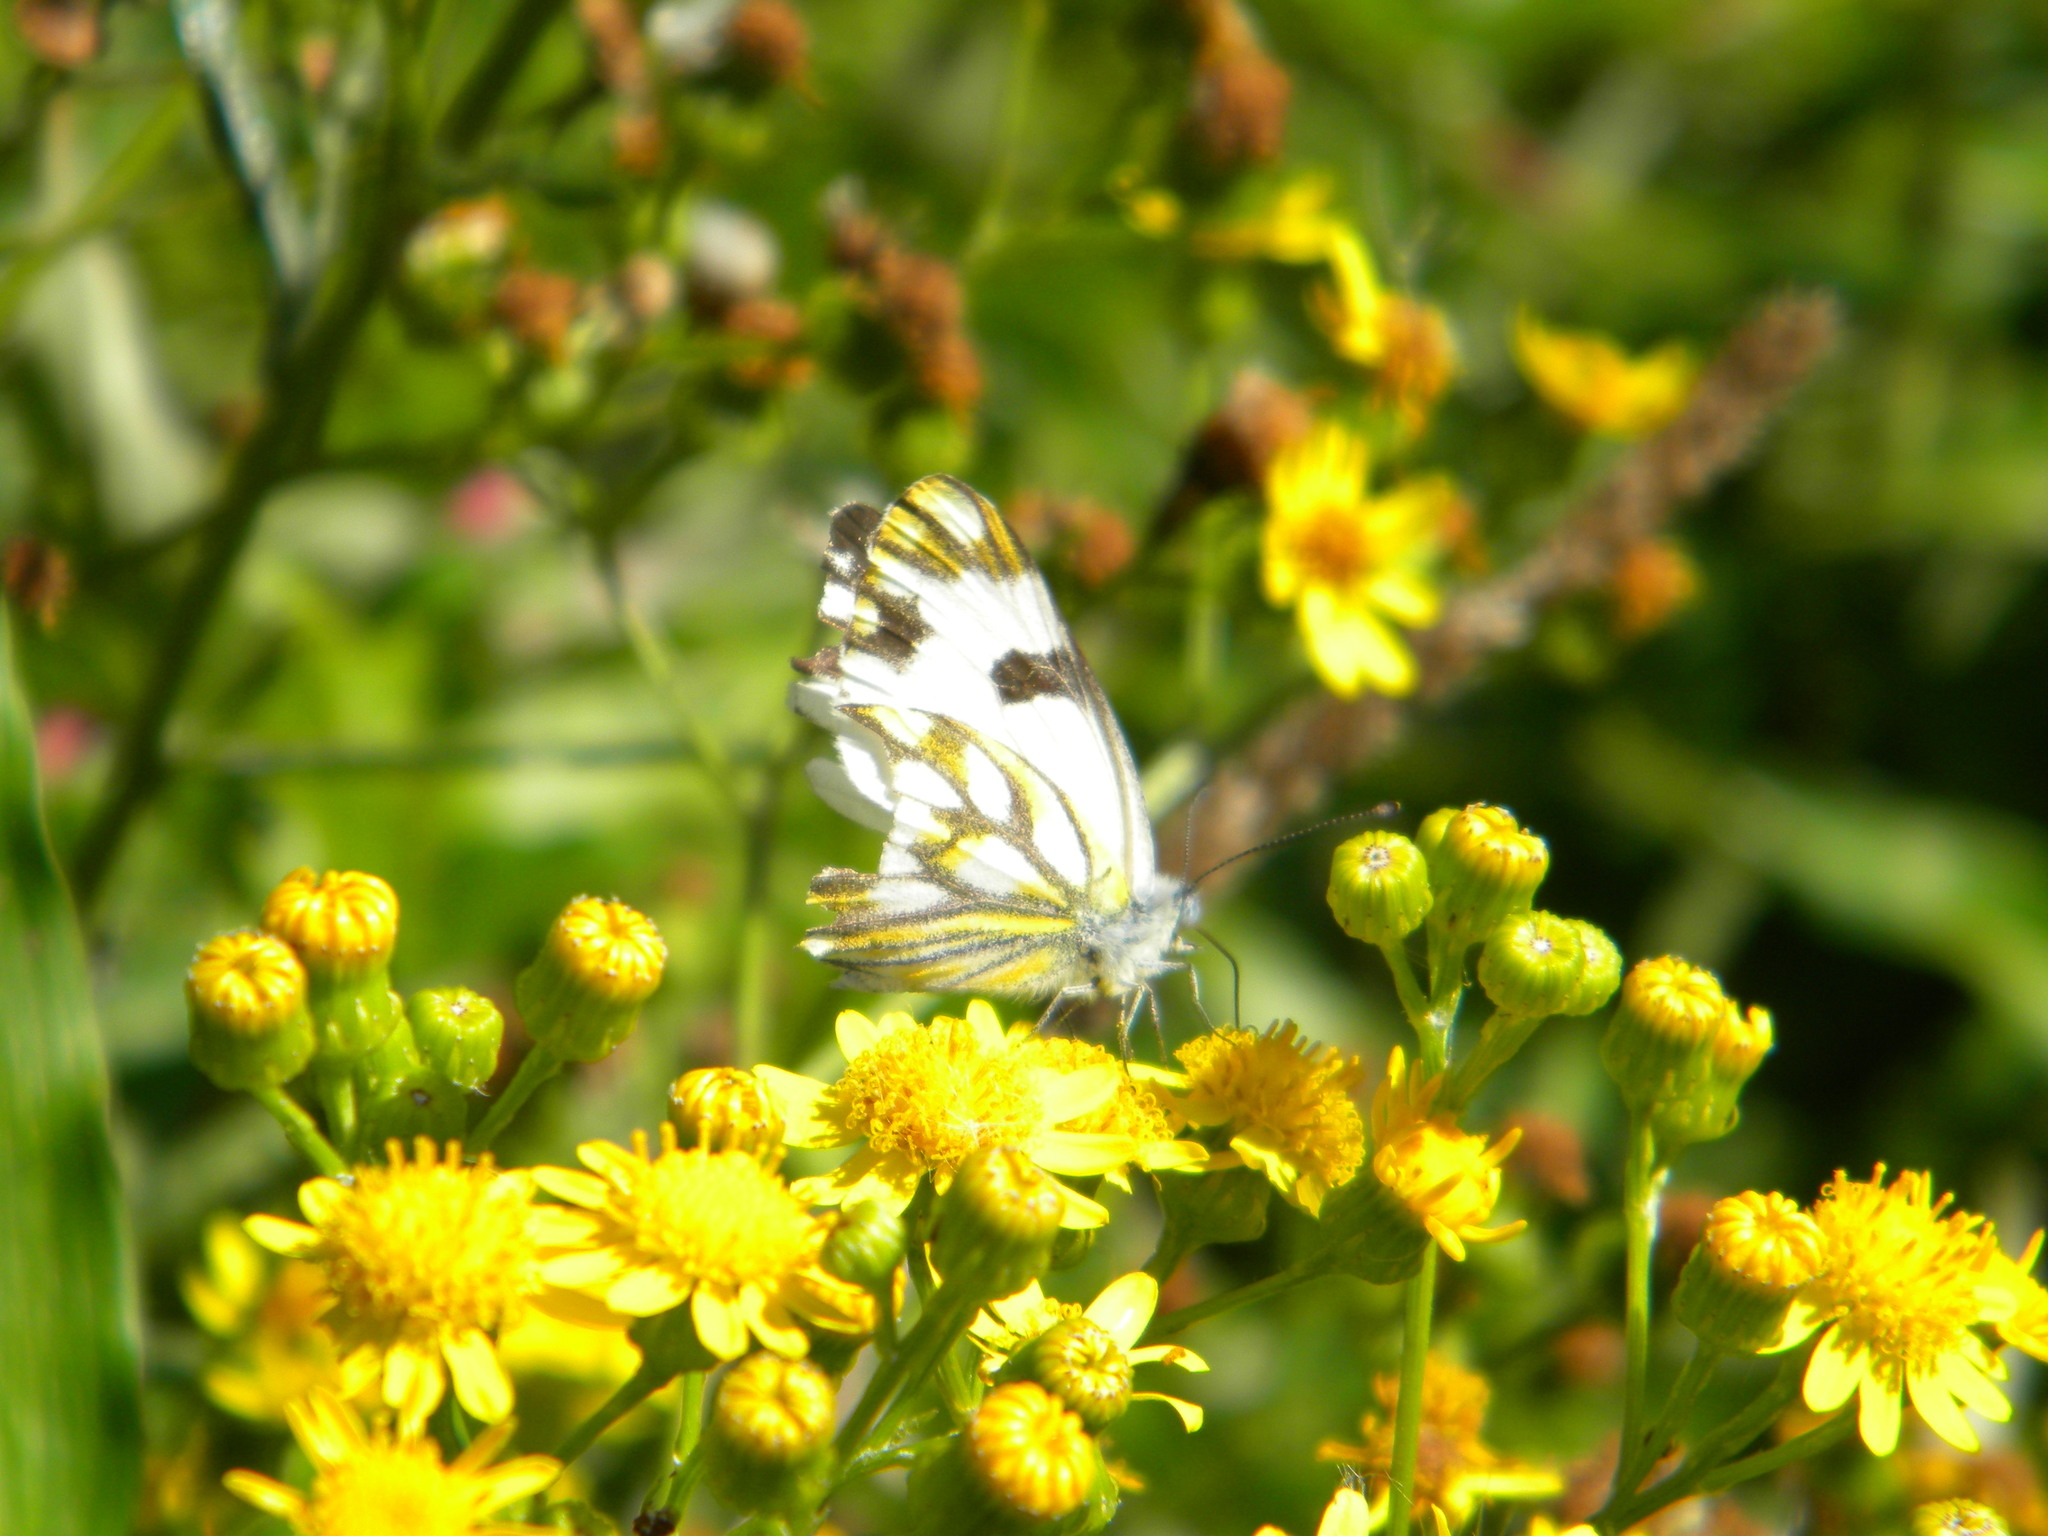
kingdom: Animalia
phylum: Arthropoda
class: Insecta
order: Lepidoptera
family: Pieridae
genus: Pontia
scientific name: Pontia helice
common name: Meadow white
